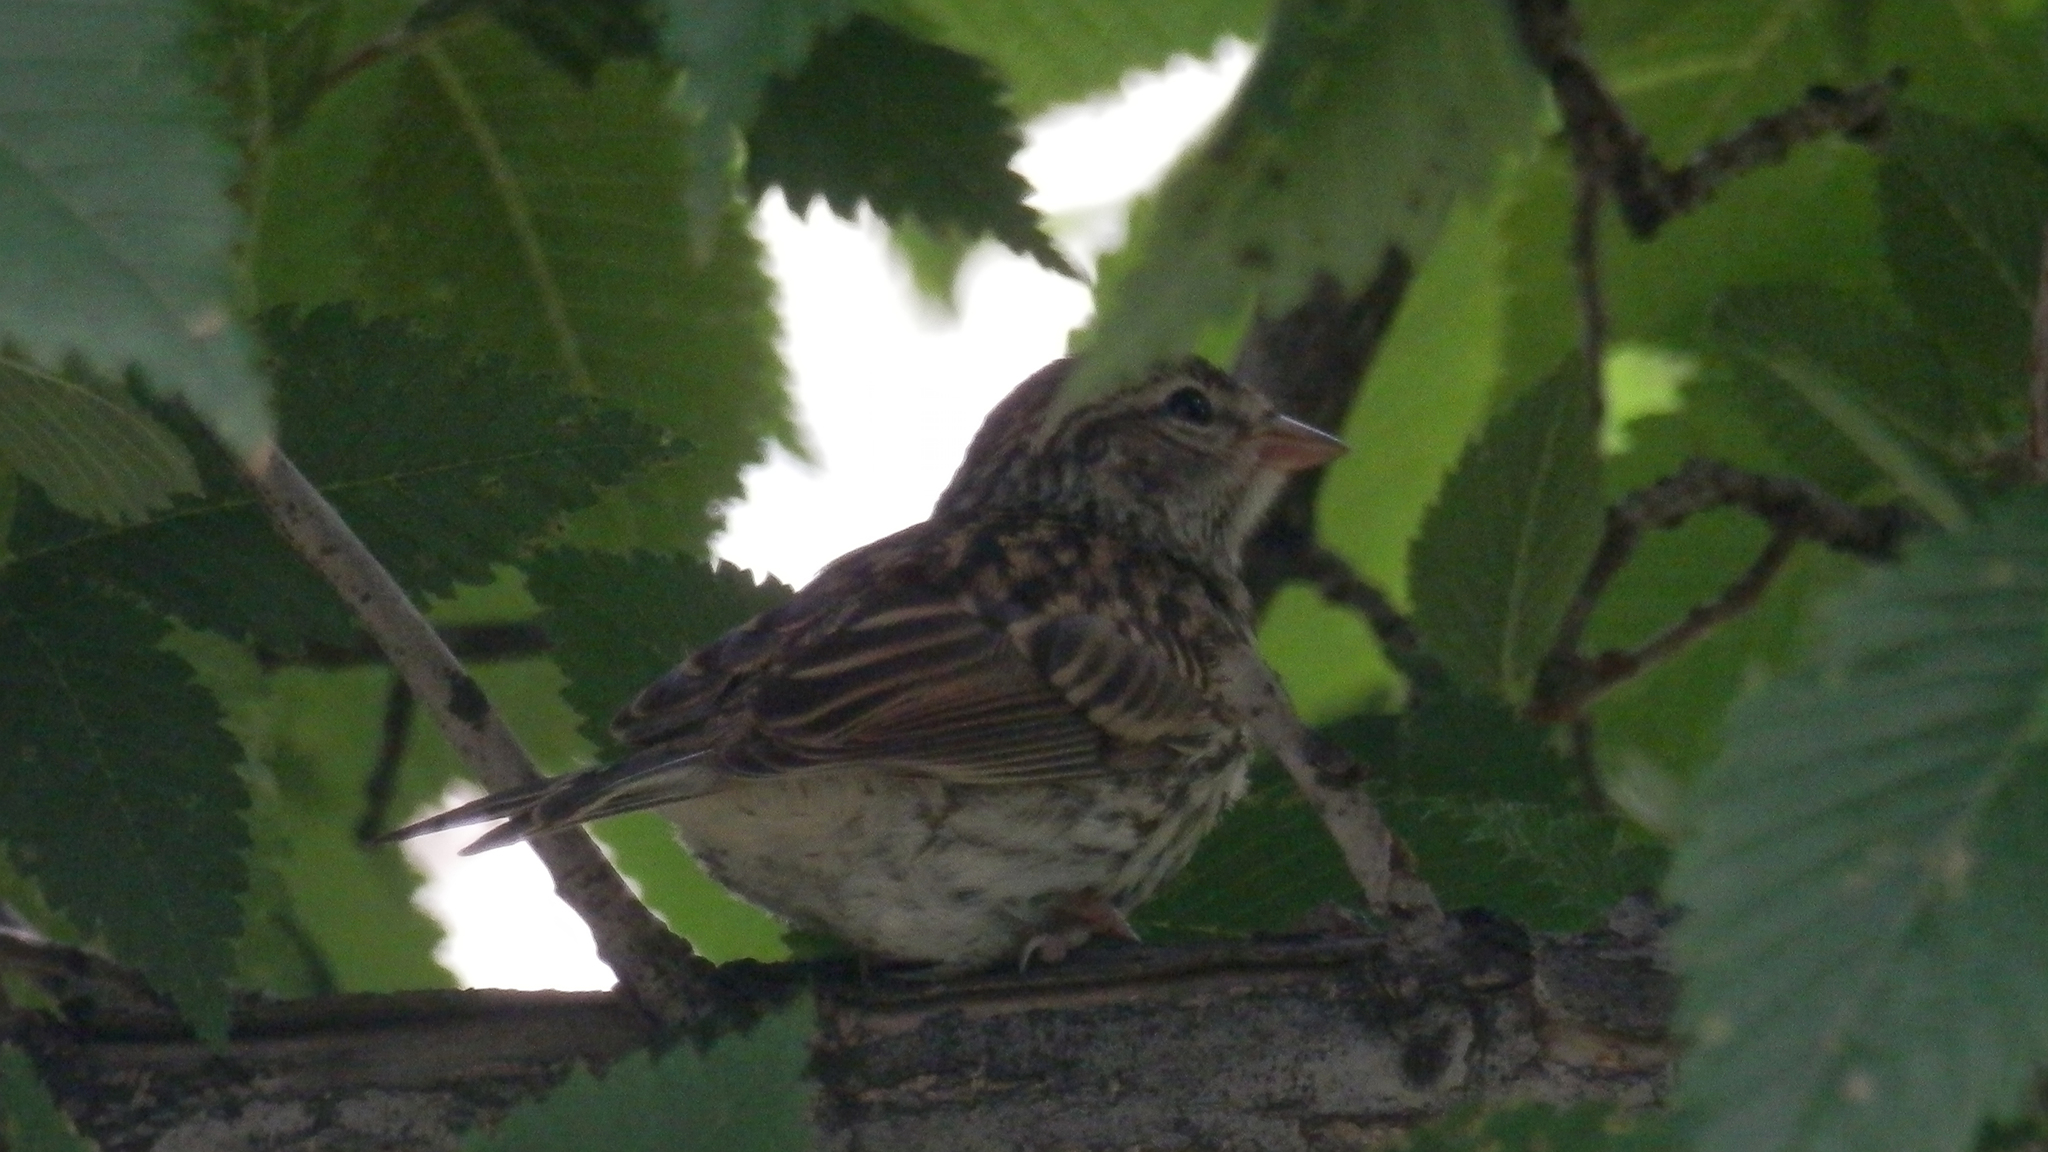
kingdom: Animalia
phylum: Chordata
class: Aves
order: Passeriformes
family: Passerellidae
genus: Spizella
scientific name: Spizella passerina
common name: Chipping sparrow
